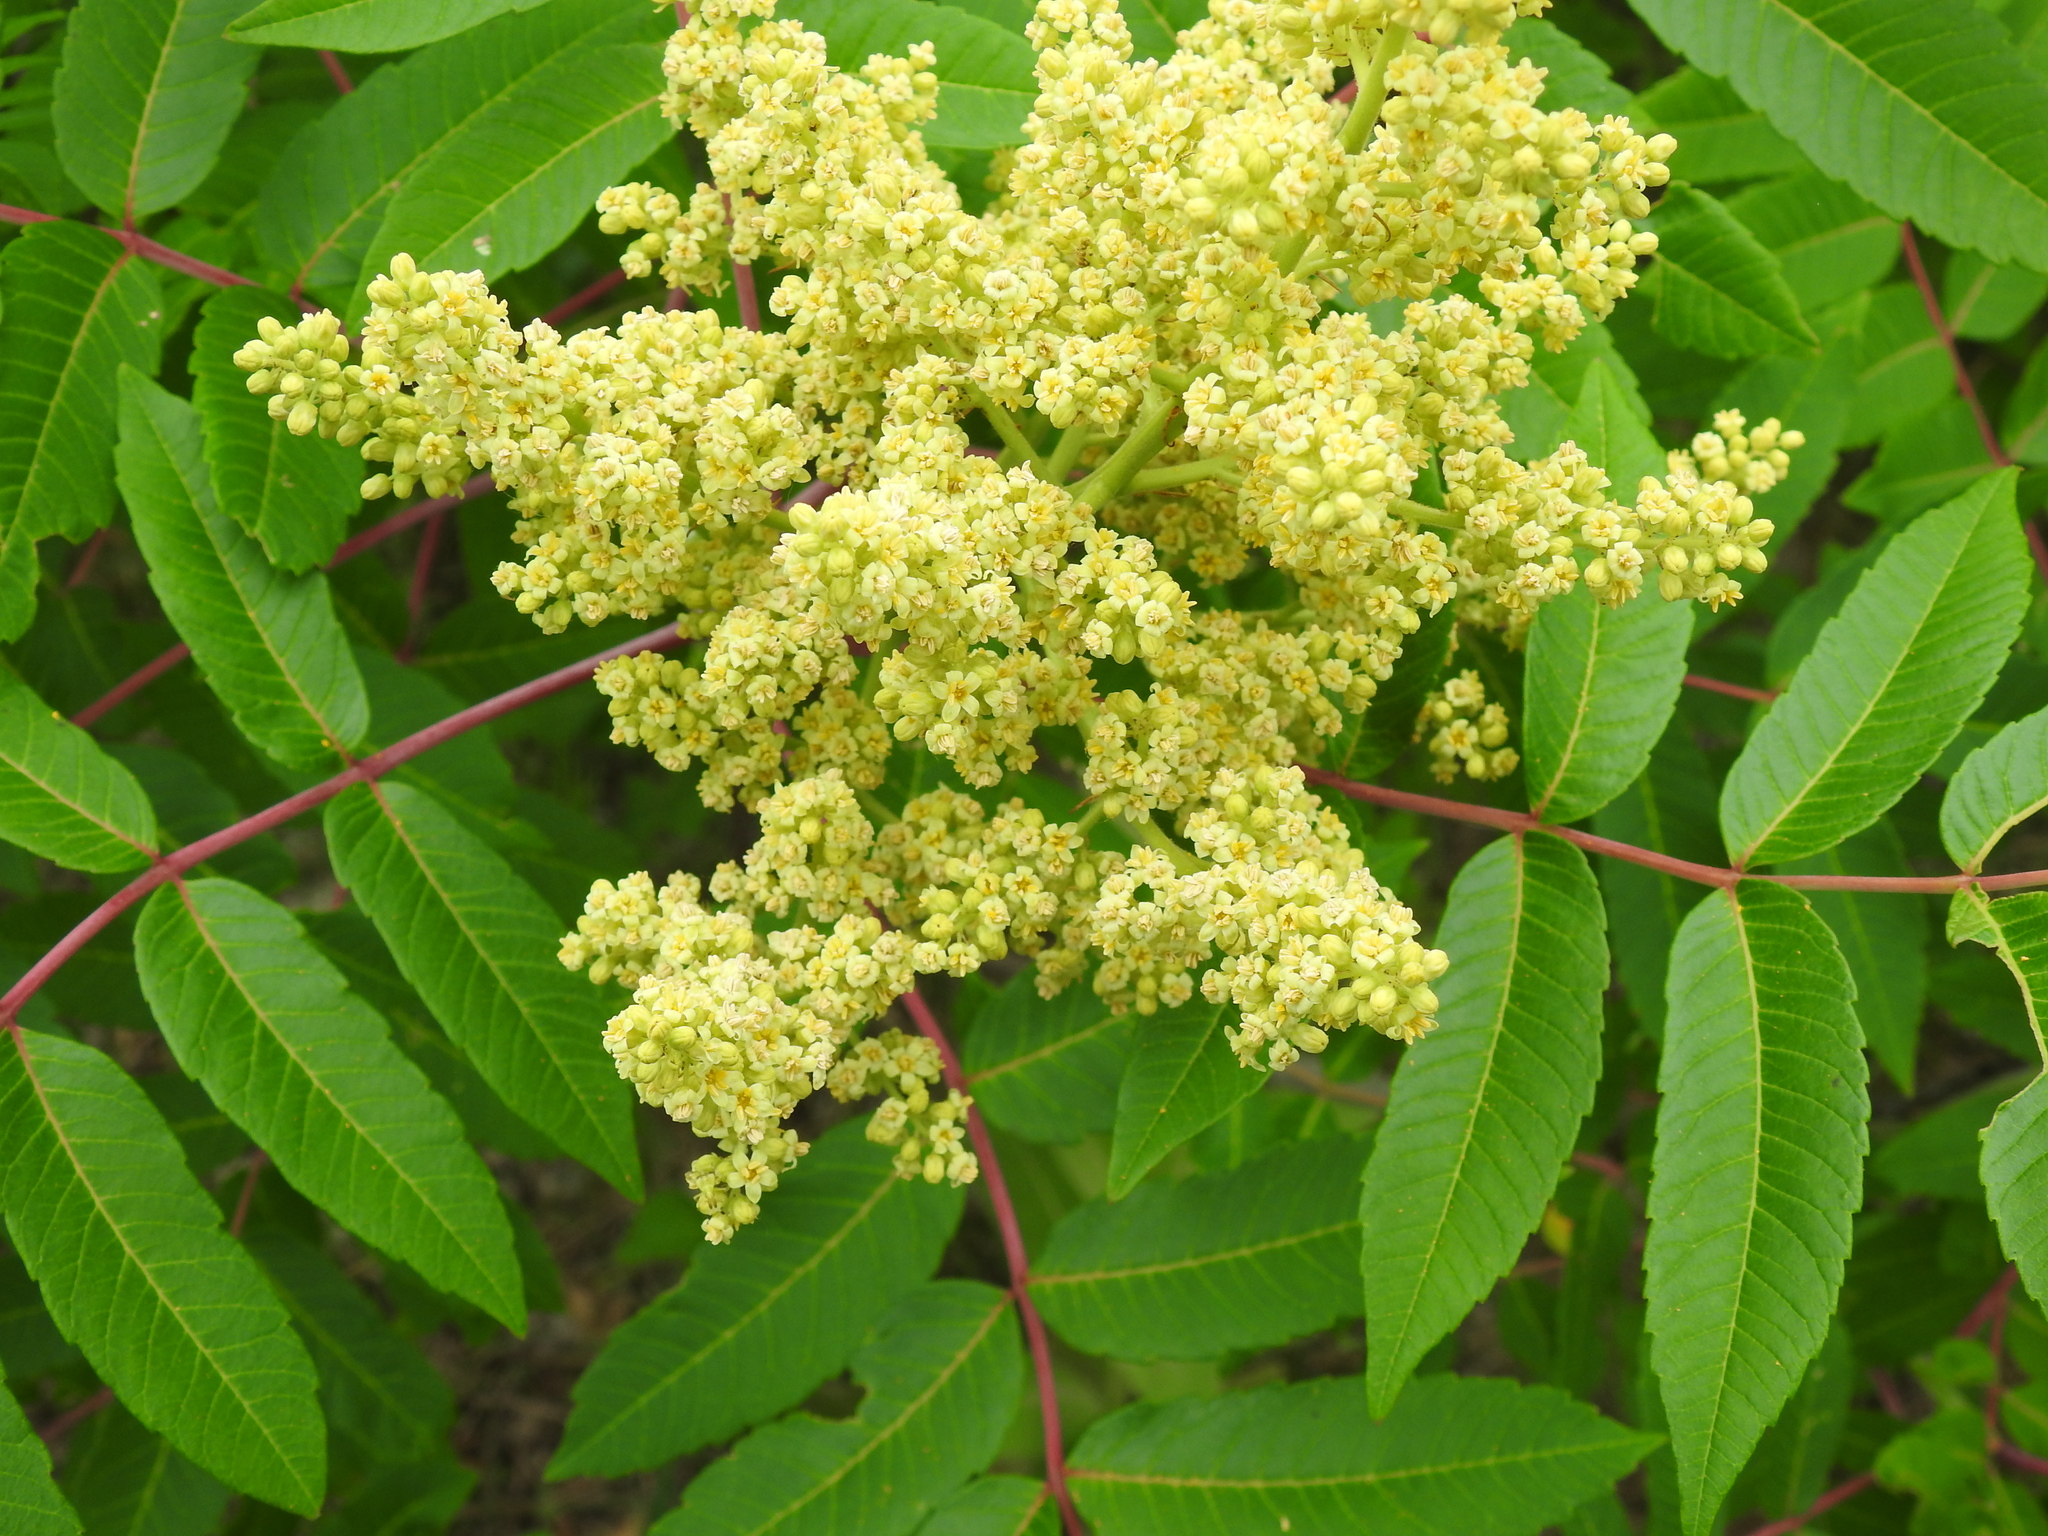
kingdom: Plantae
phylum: Tracheophyta
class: Magnoliopsida
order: Sapindales
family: Anacardiaceae
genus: Rhus
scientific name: Rhus glabra
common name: Scarlet sumac
